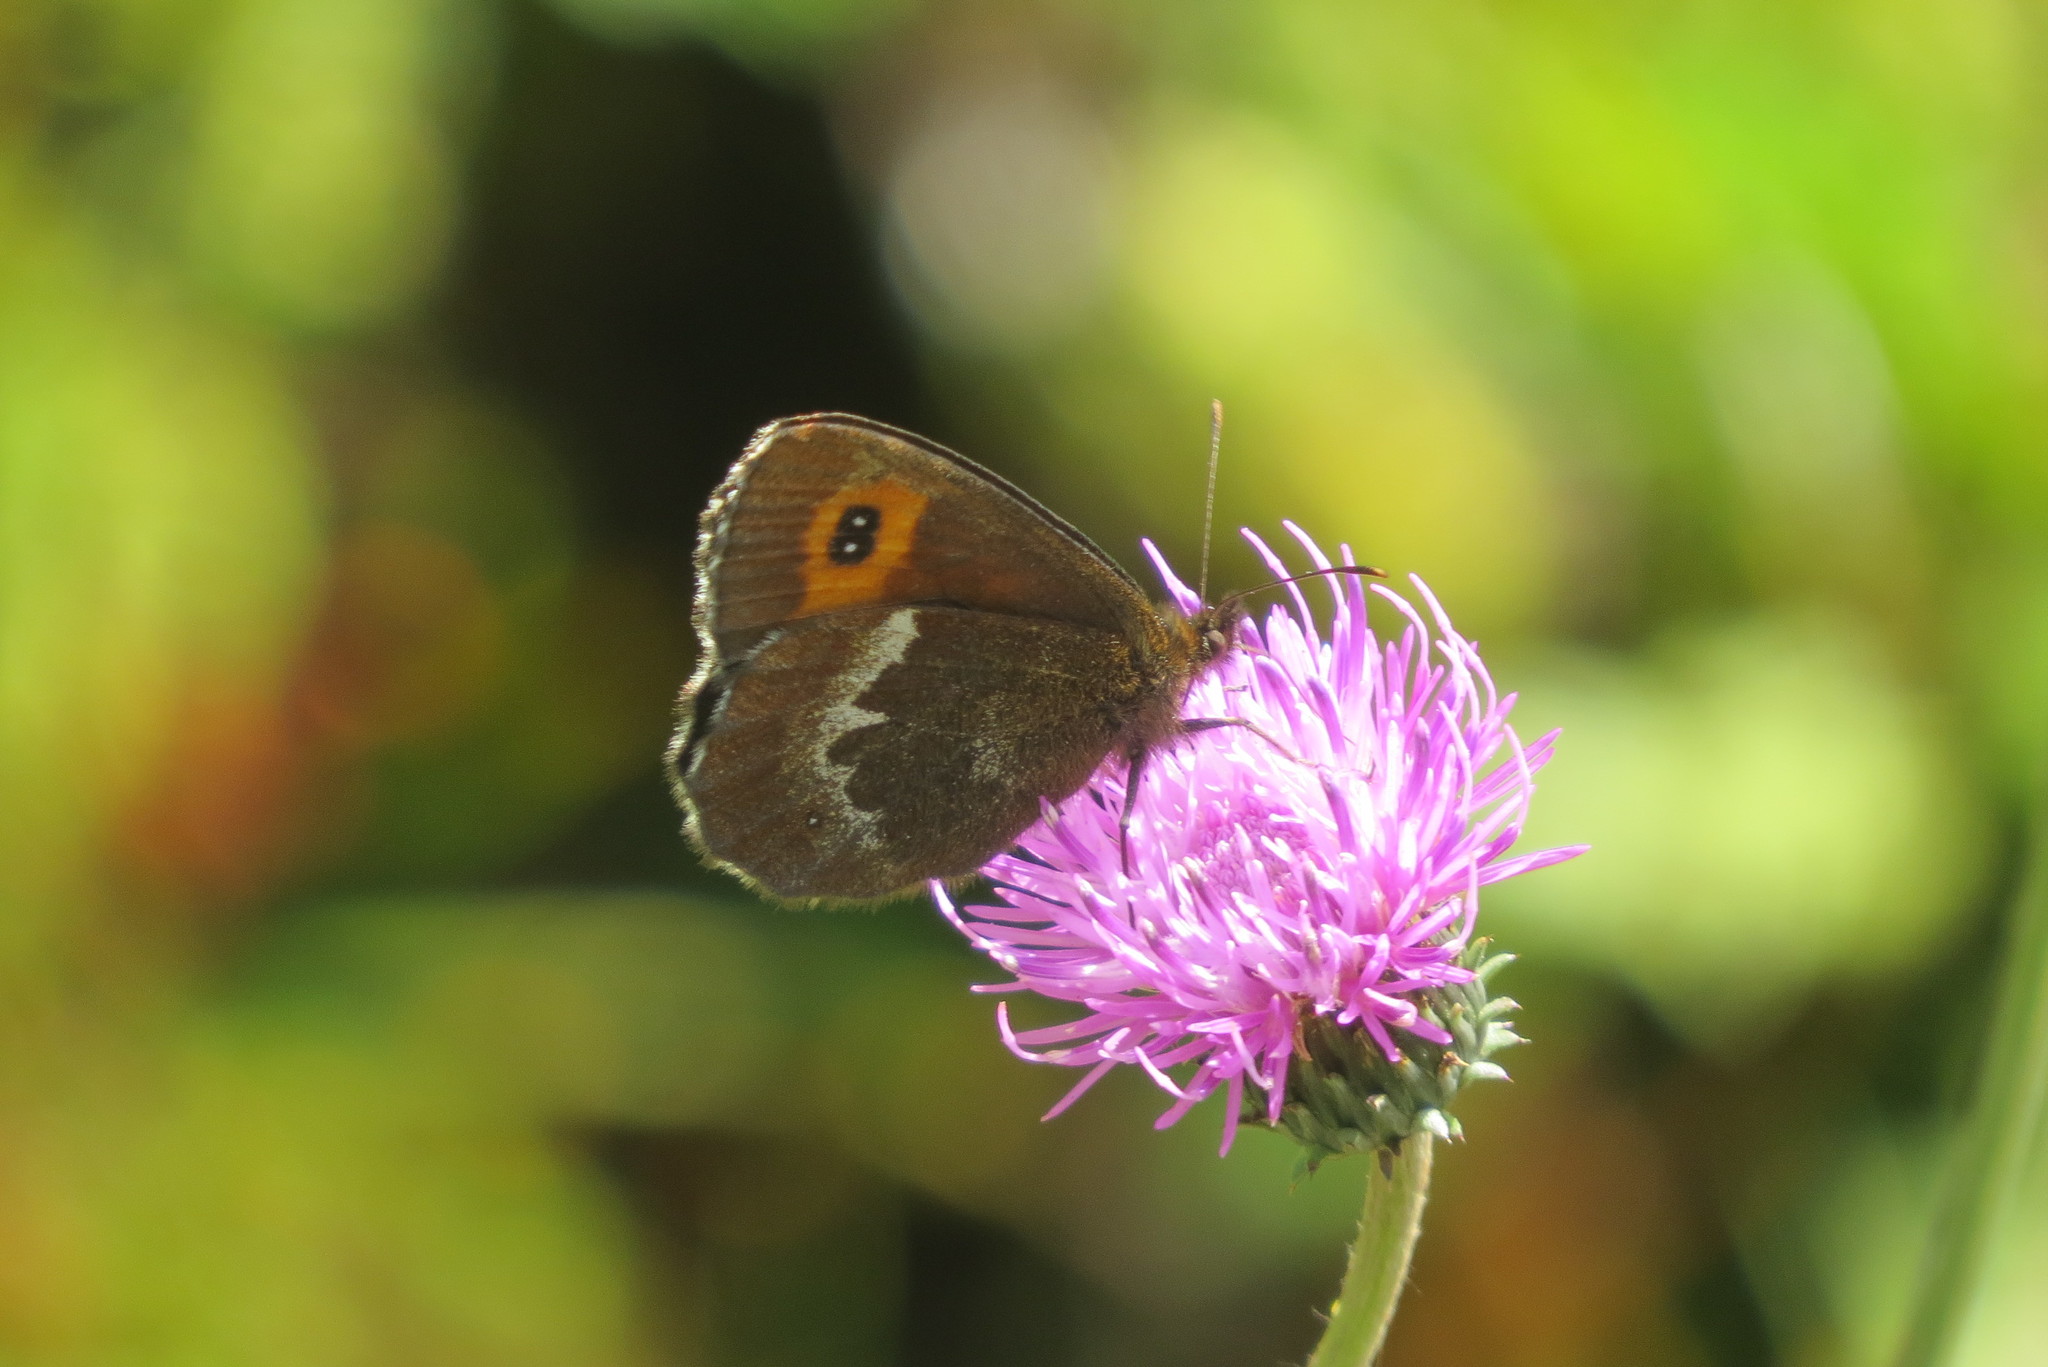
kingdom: Animalia
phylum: Arthropoda
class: Insecta
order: Lepidoptera
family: Nymphalidae
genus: Erebia
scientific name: Erebia euryale
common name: Large ringlet
